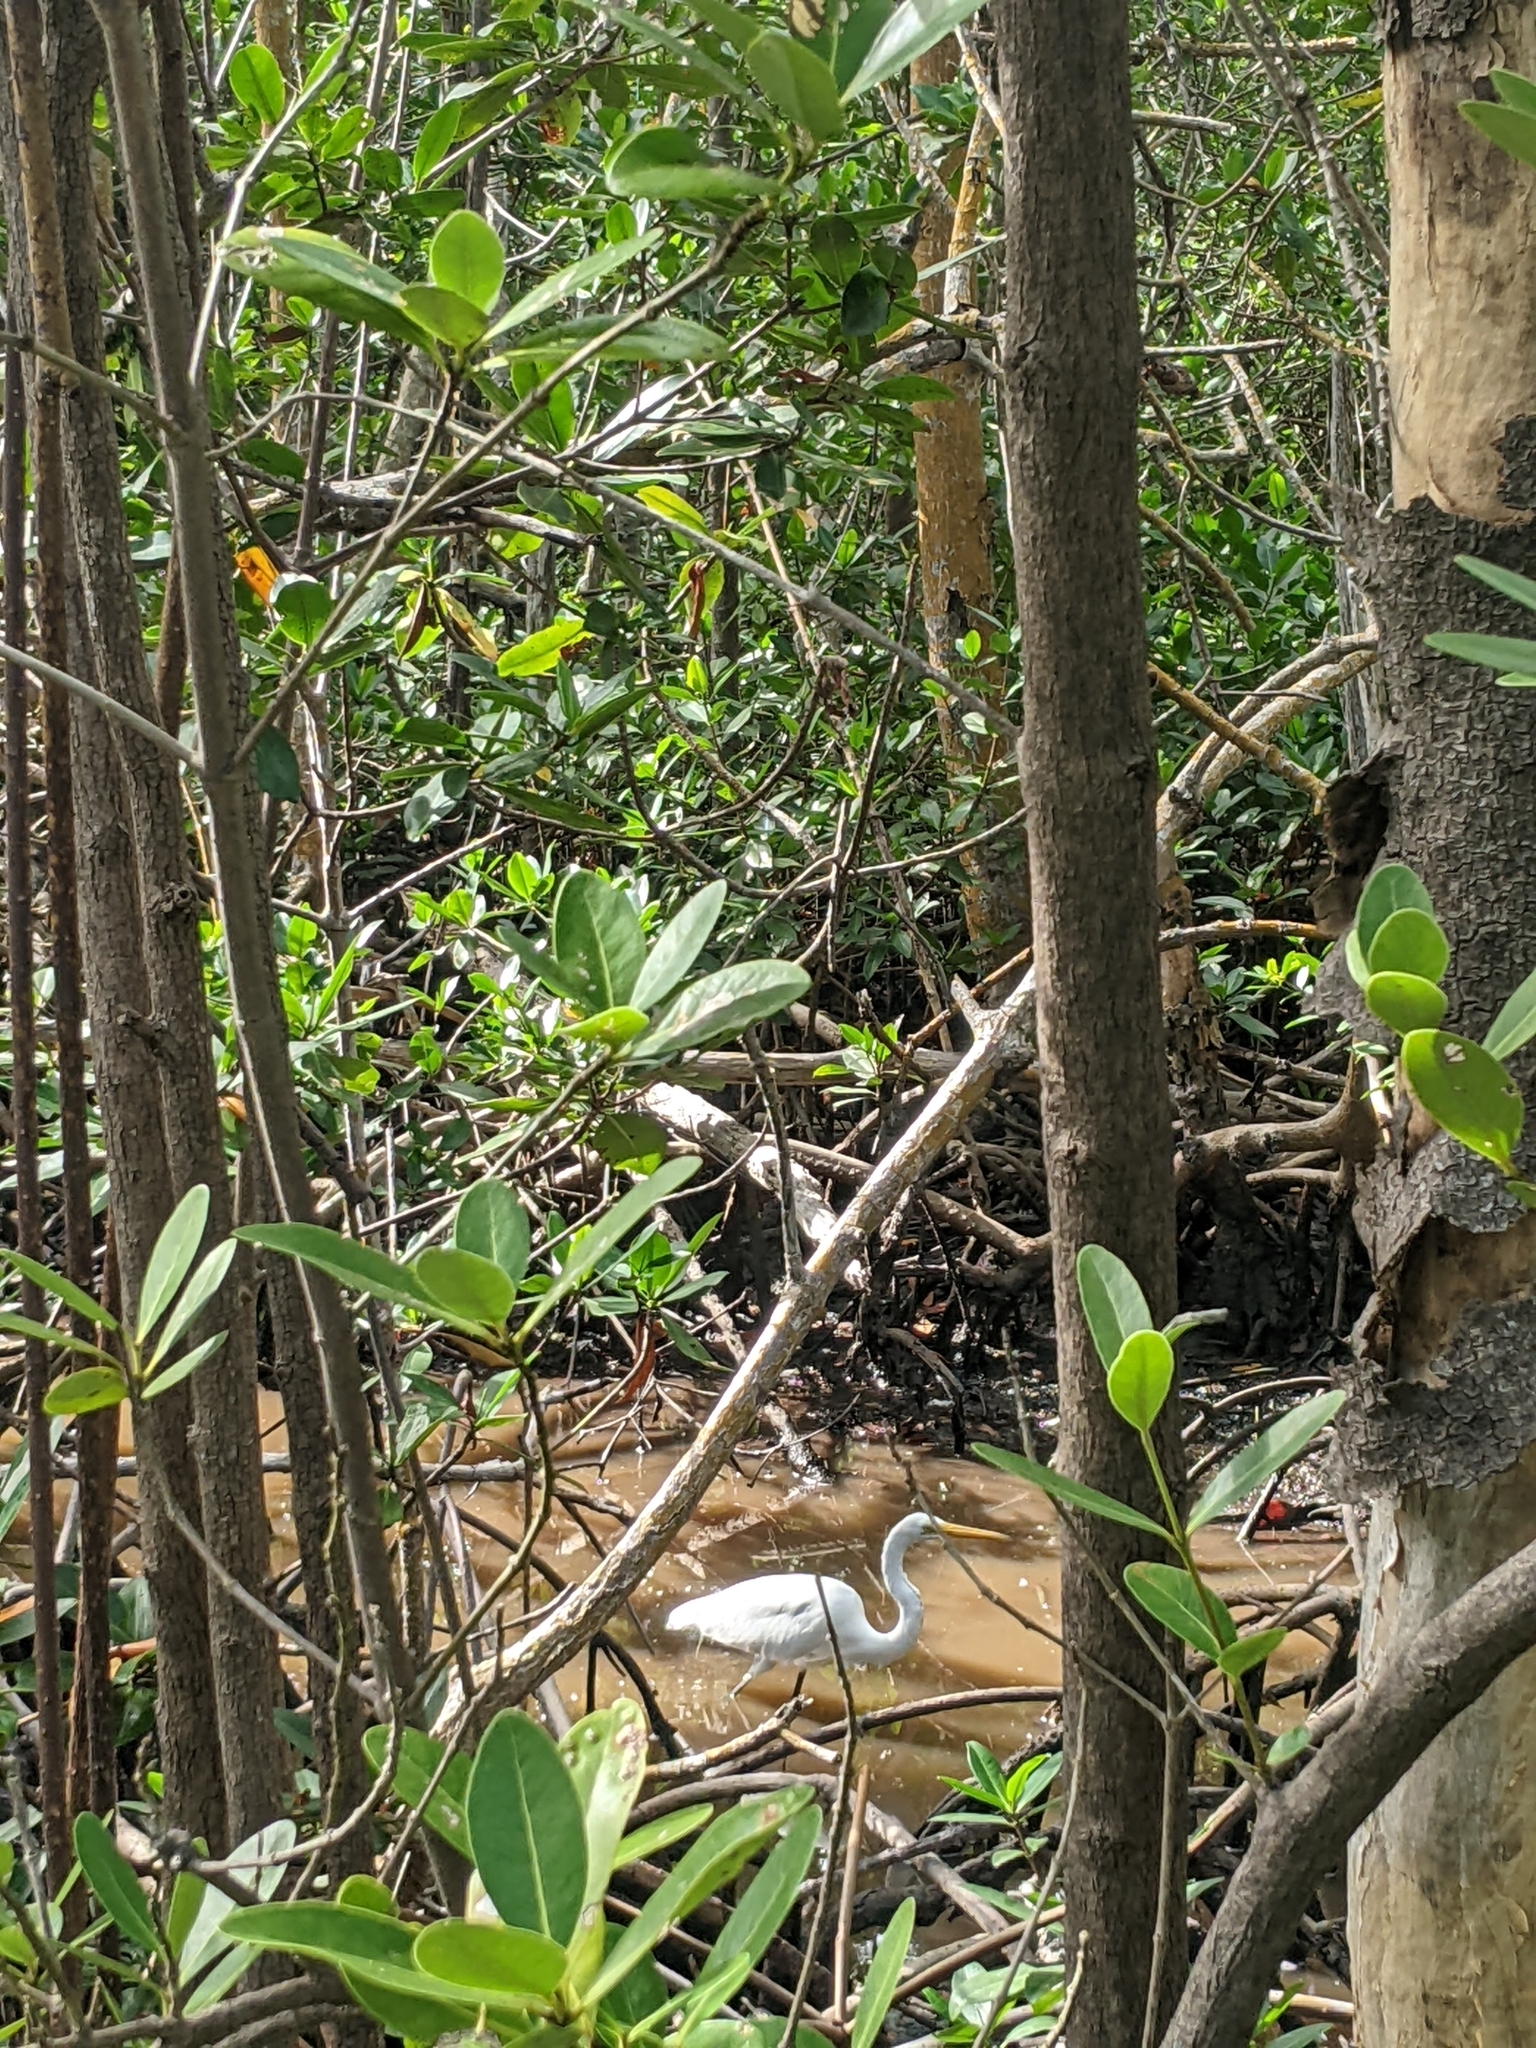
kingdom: Animalia
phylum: Chordata
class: Aves
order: Pelecaniformes
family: Ardeidae
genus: Ardea
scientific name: Ardea alba
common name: Great egret
